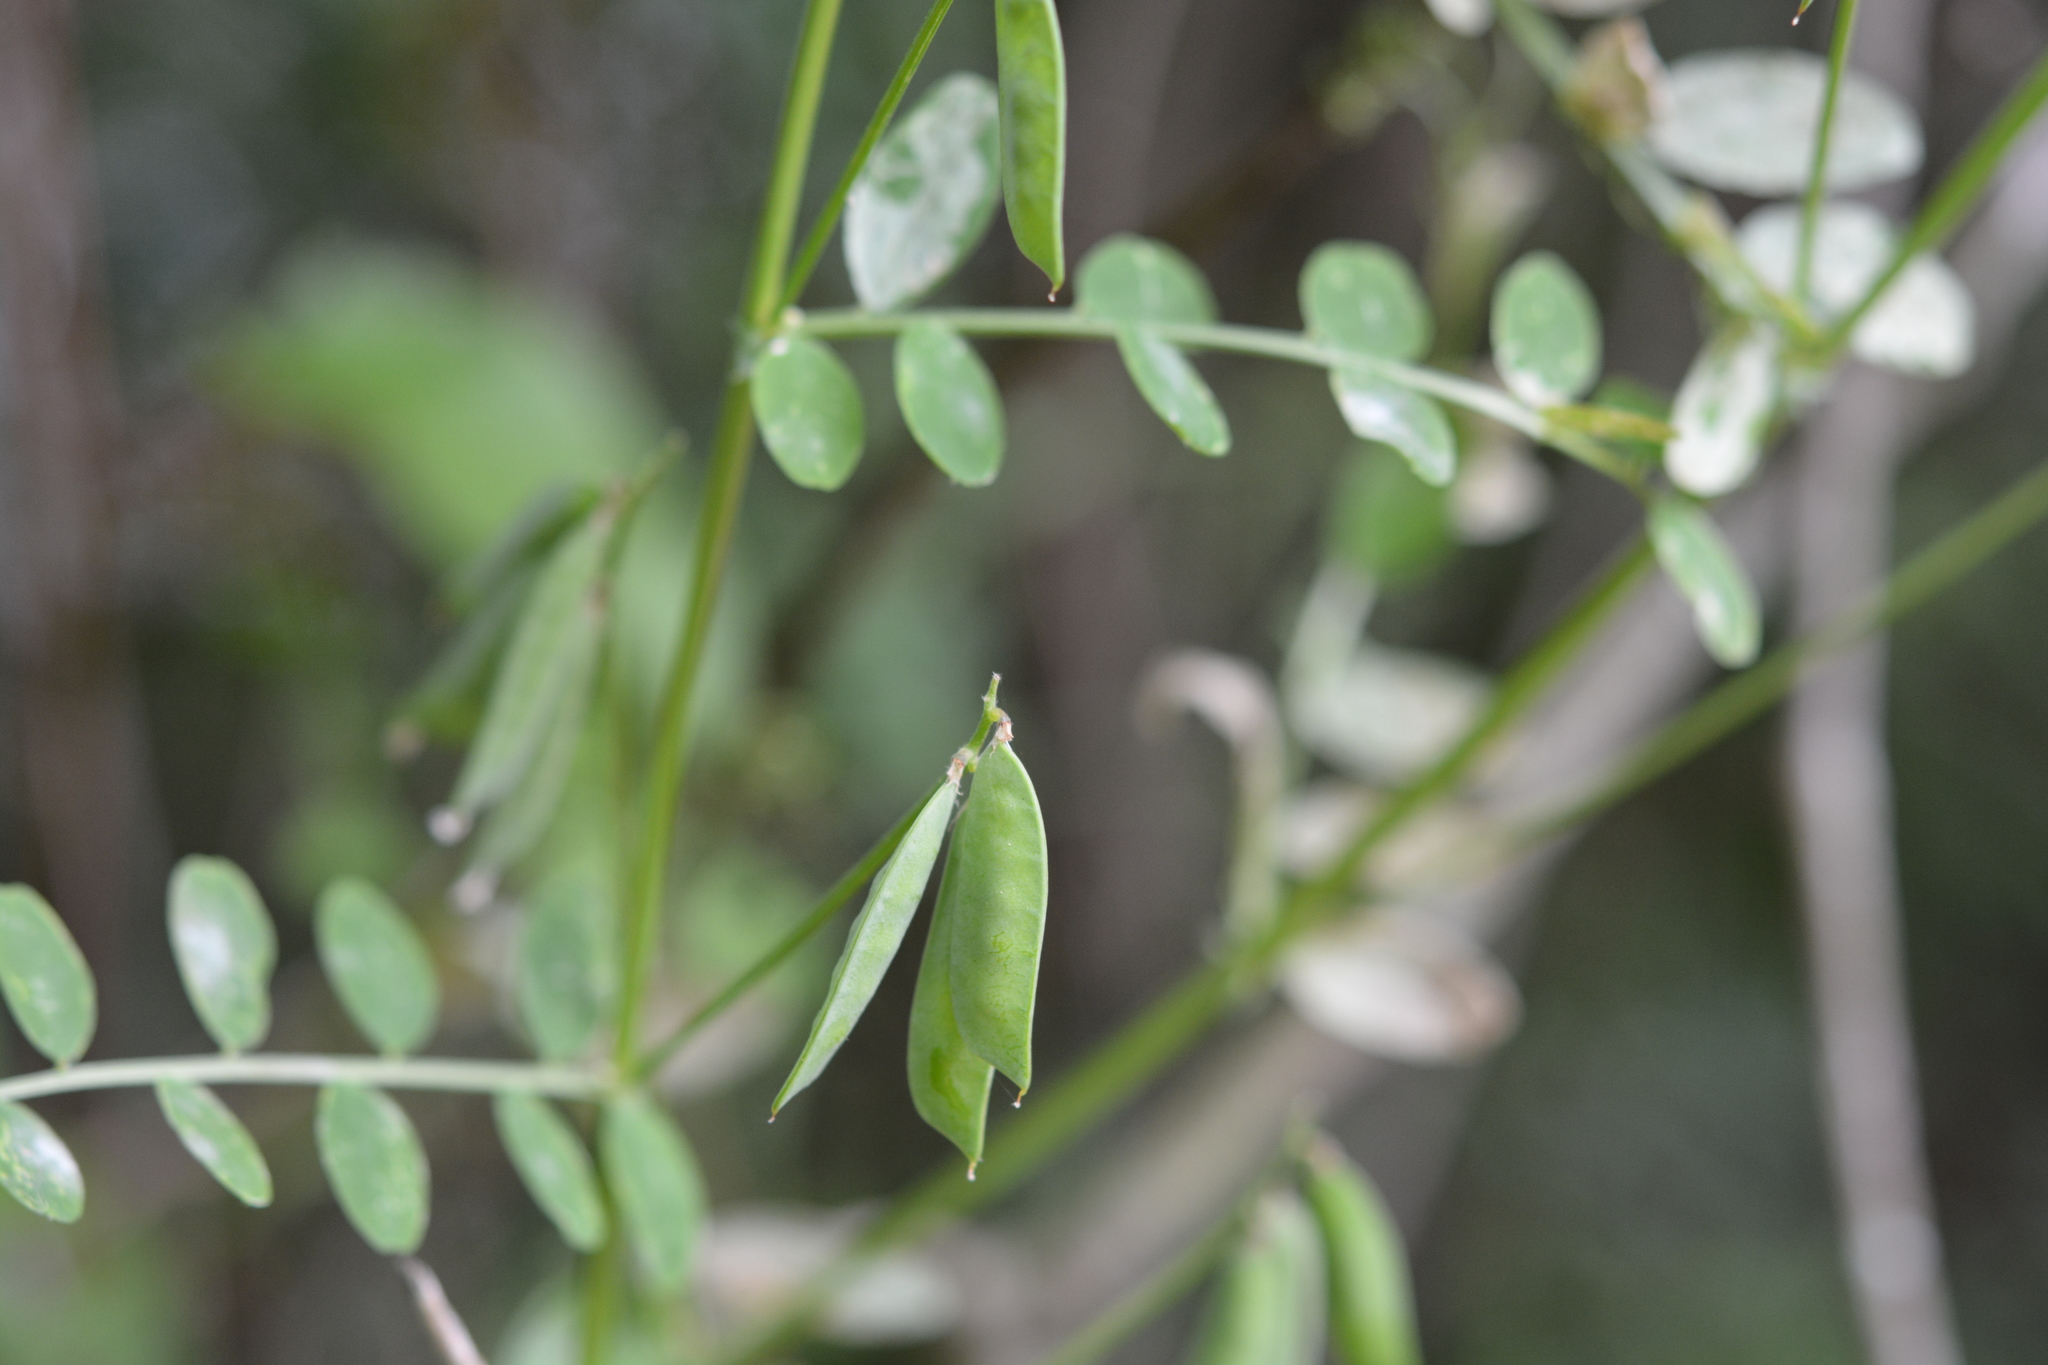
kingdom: Plantae
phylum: Tracheophyta
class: Magnoliopsida
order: Fabales
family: Fabaceae
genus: Vicia
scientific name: Vicia ludoviciana
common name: Louisiana vetch
